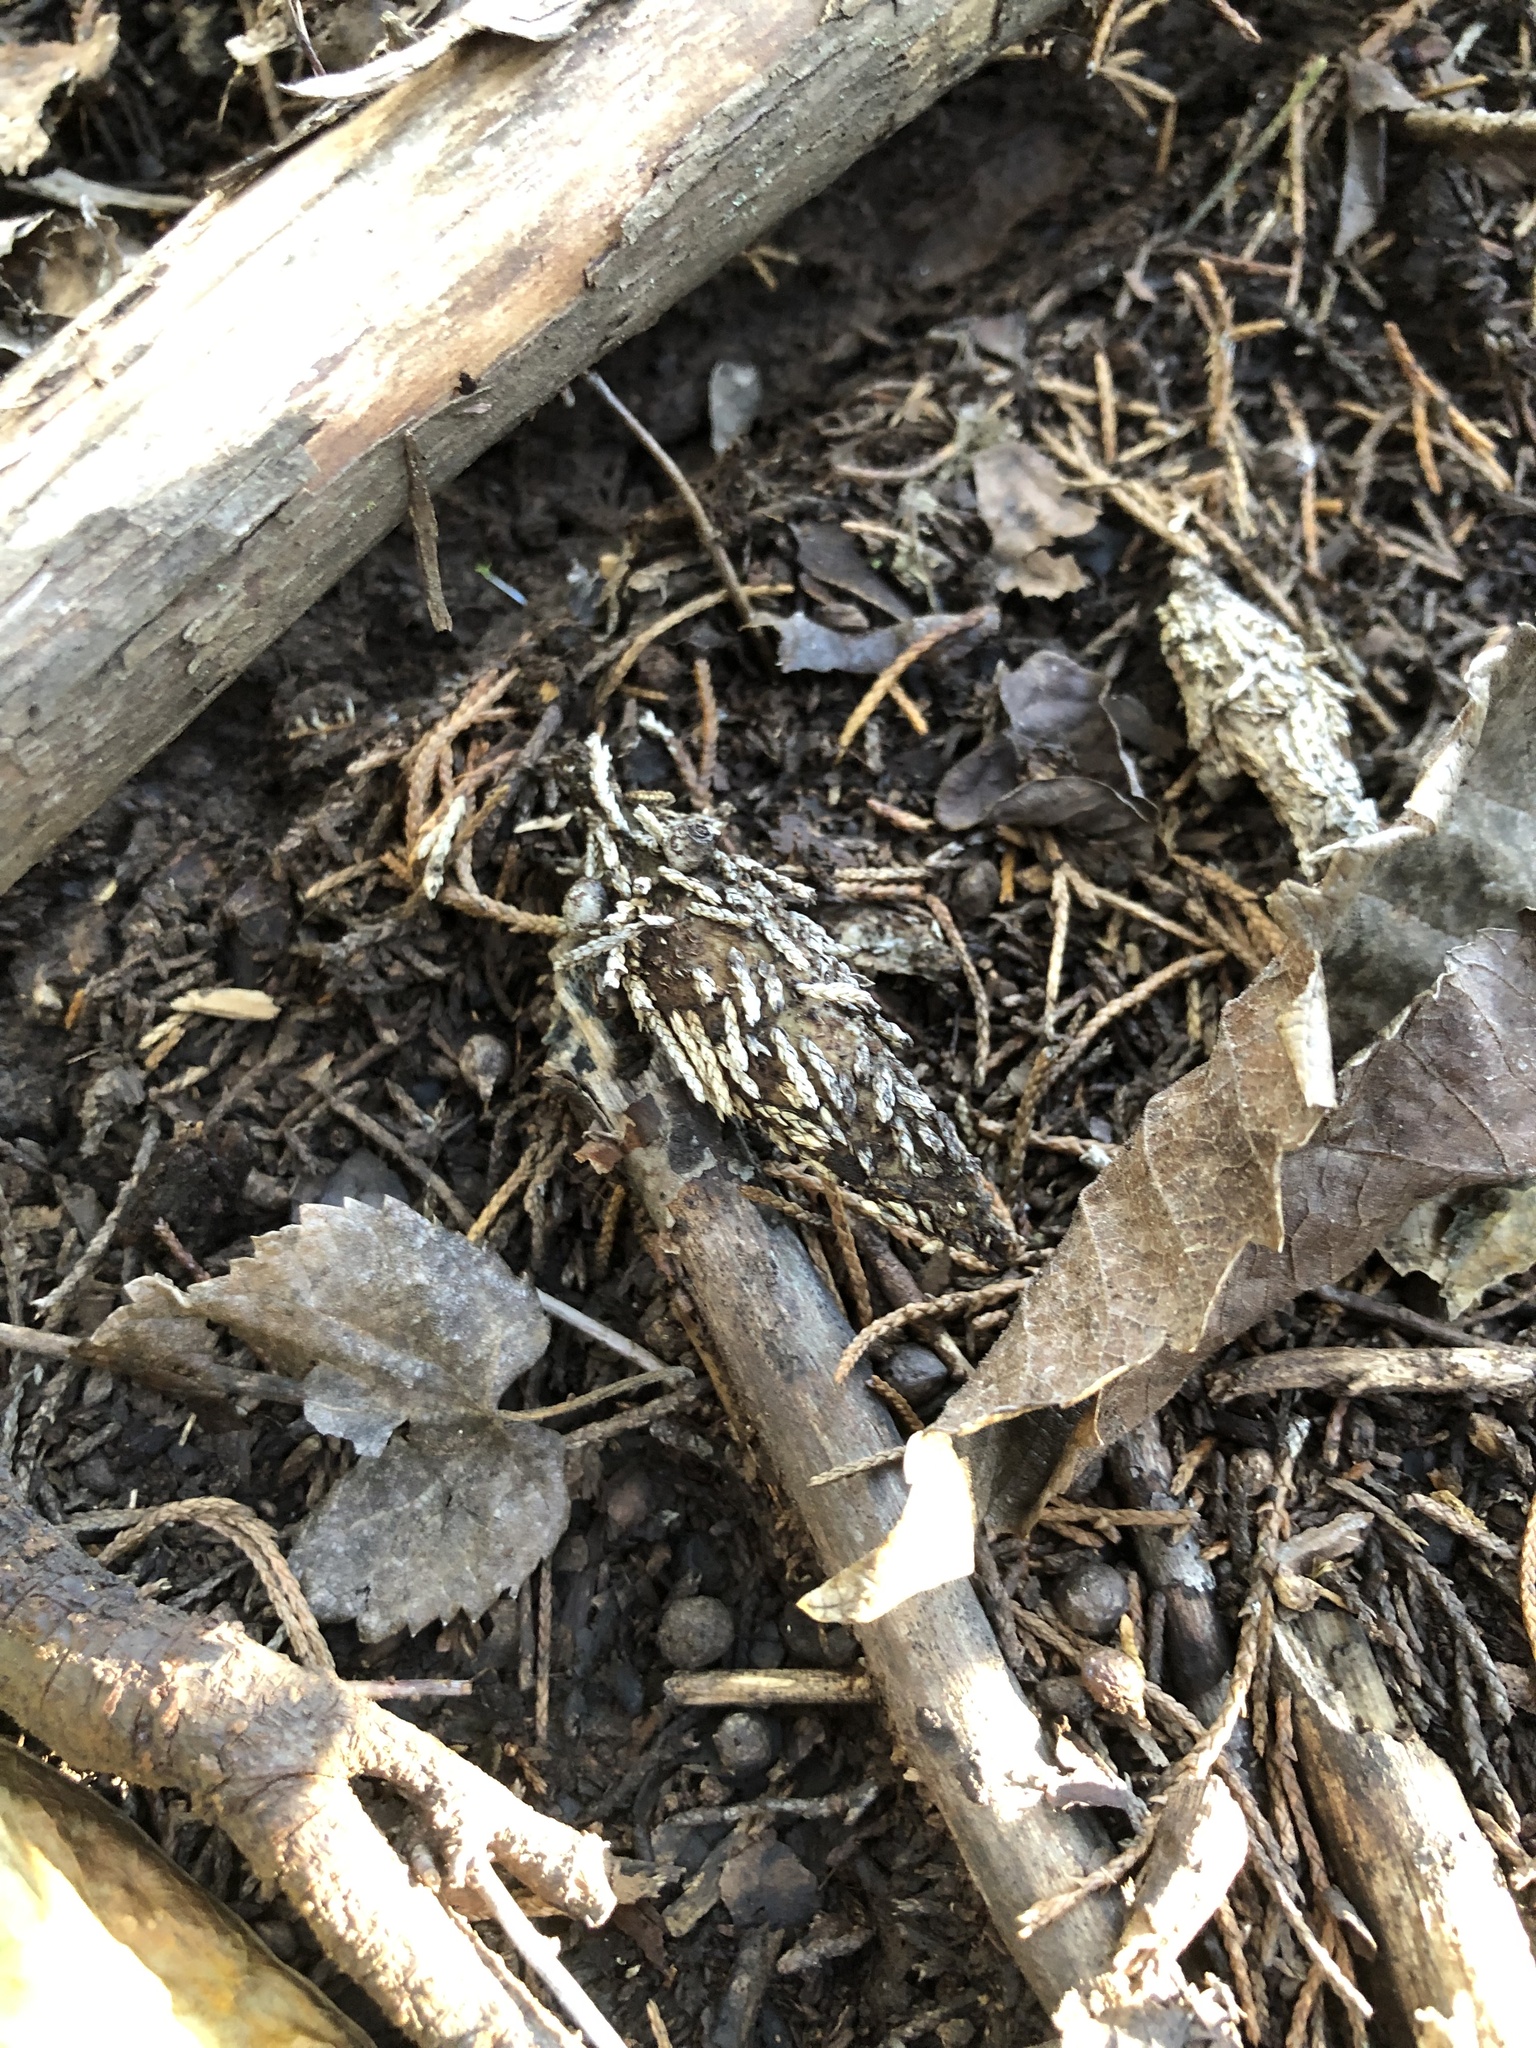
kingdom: Animalia
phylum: Arthropoda
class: Insecta
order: Lepidoptera
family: Psychidae
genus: Thyridopteryx
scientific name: Thyridopteryx ephemeraeformis
